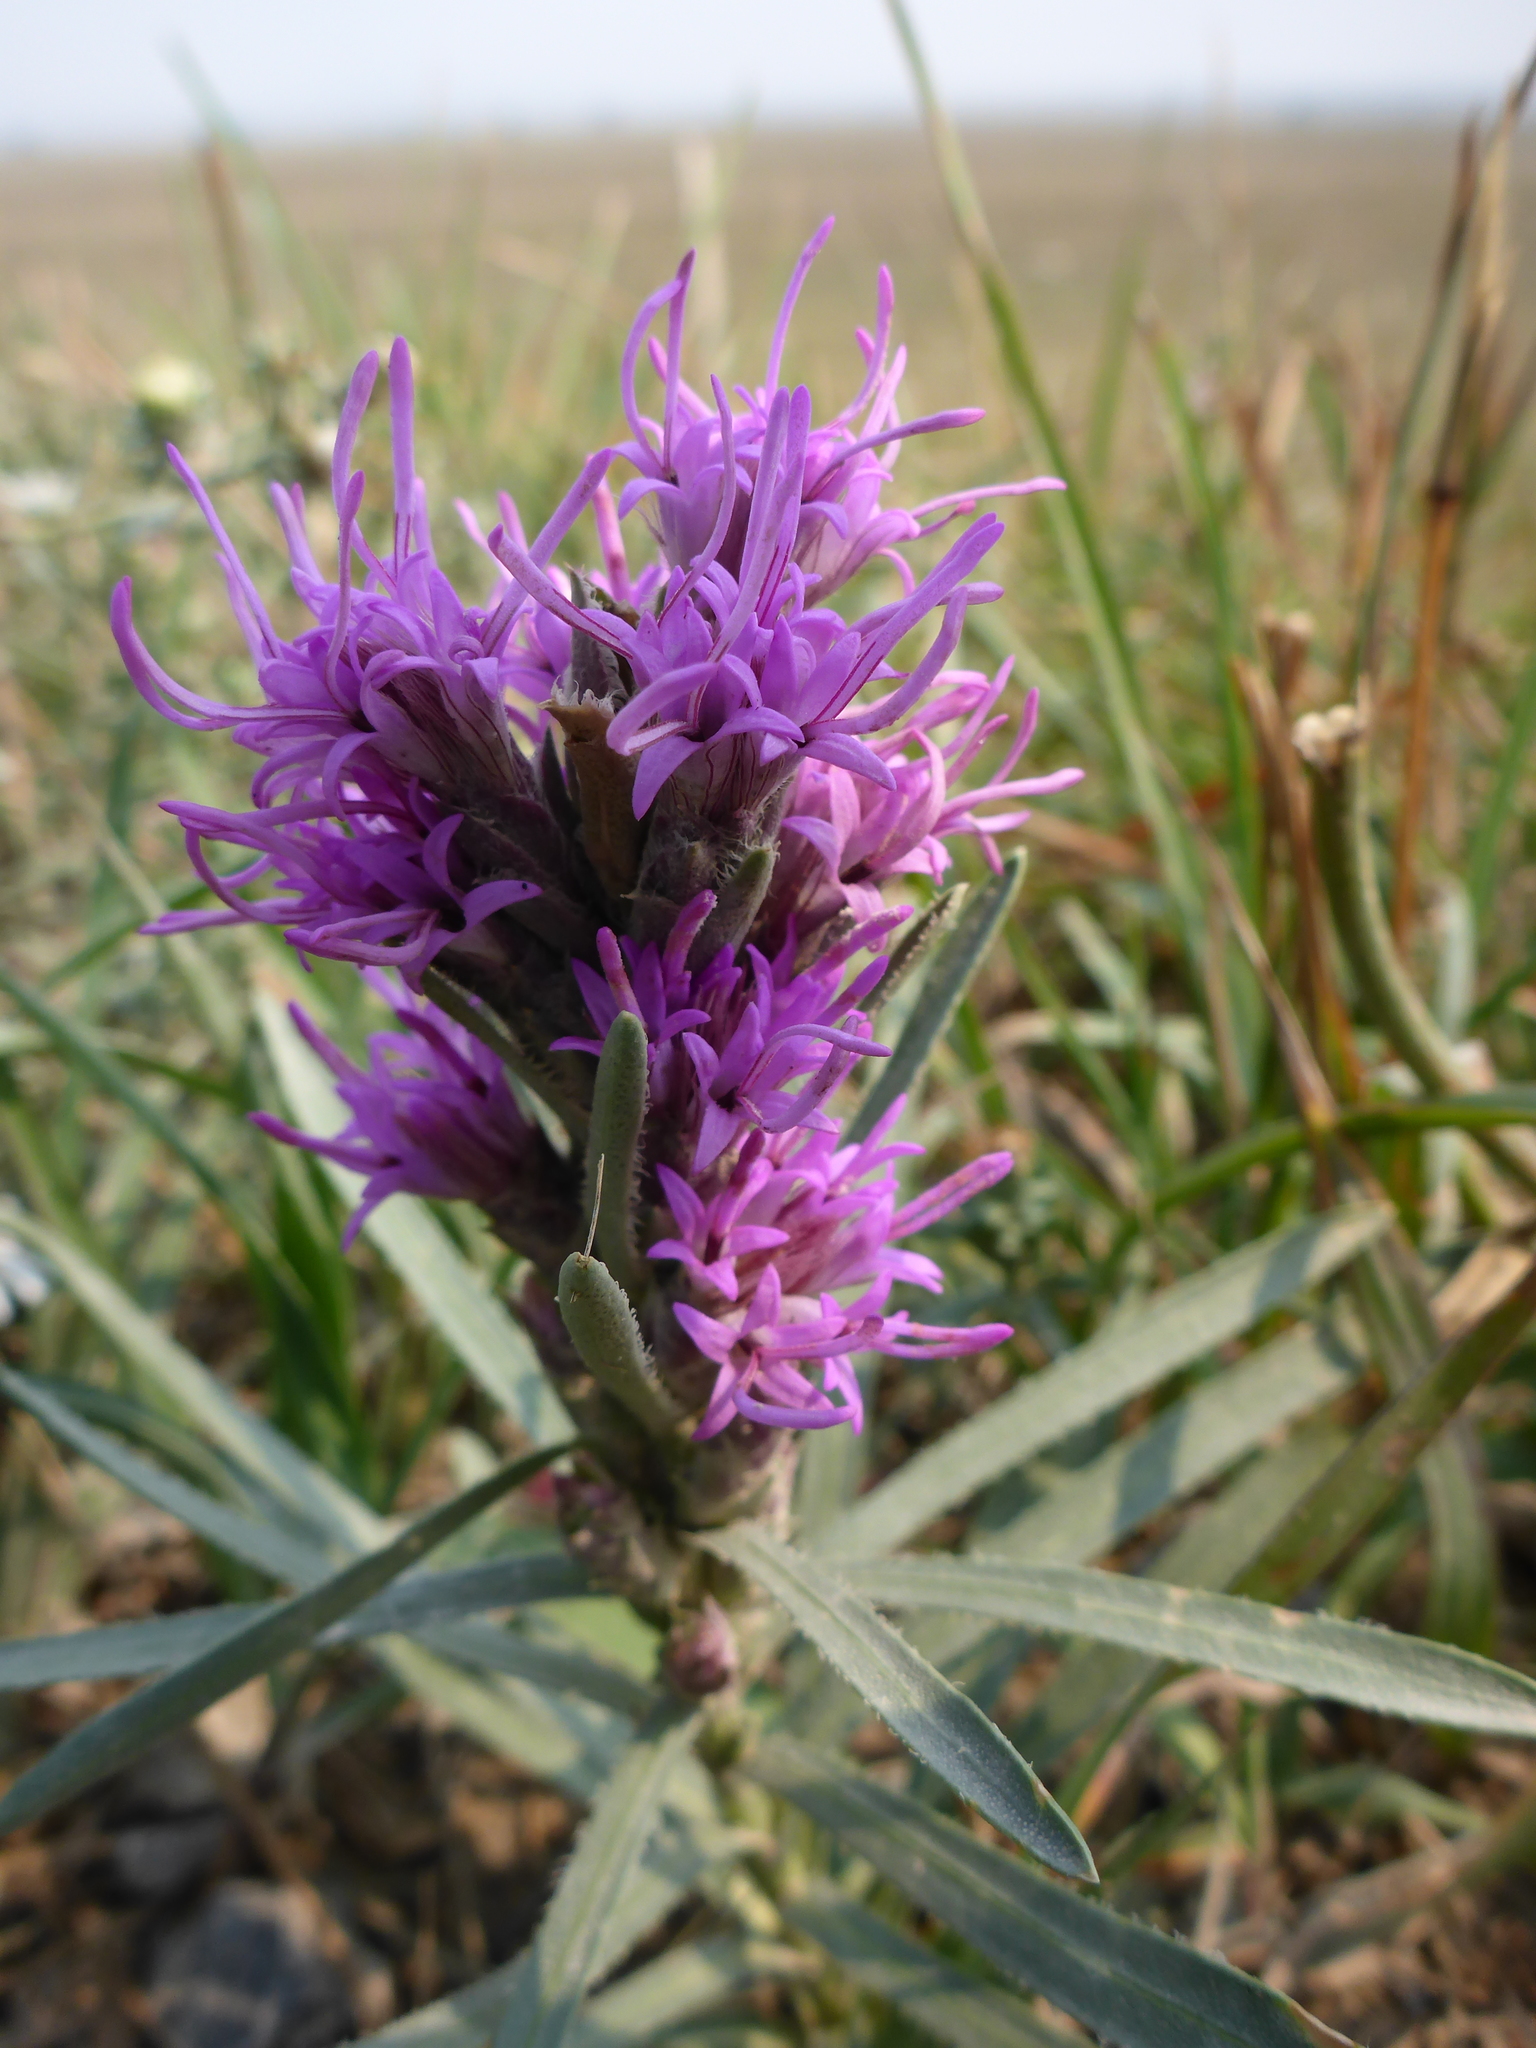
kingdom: Plantae
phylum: Tracheophyta
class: Magnoliopsida
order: Asterales
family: Asteraceae
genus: Liatris
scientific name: Liatris punctata
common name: Dotted gayfeather
